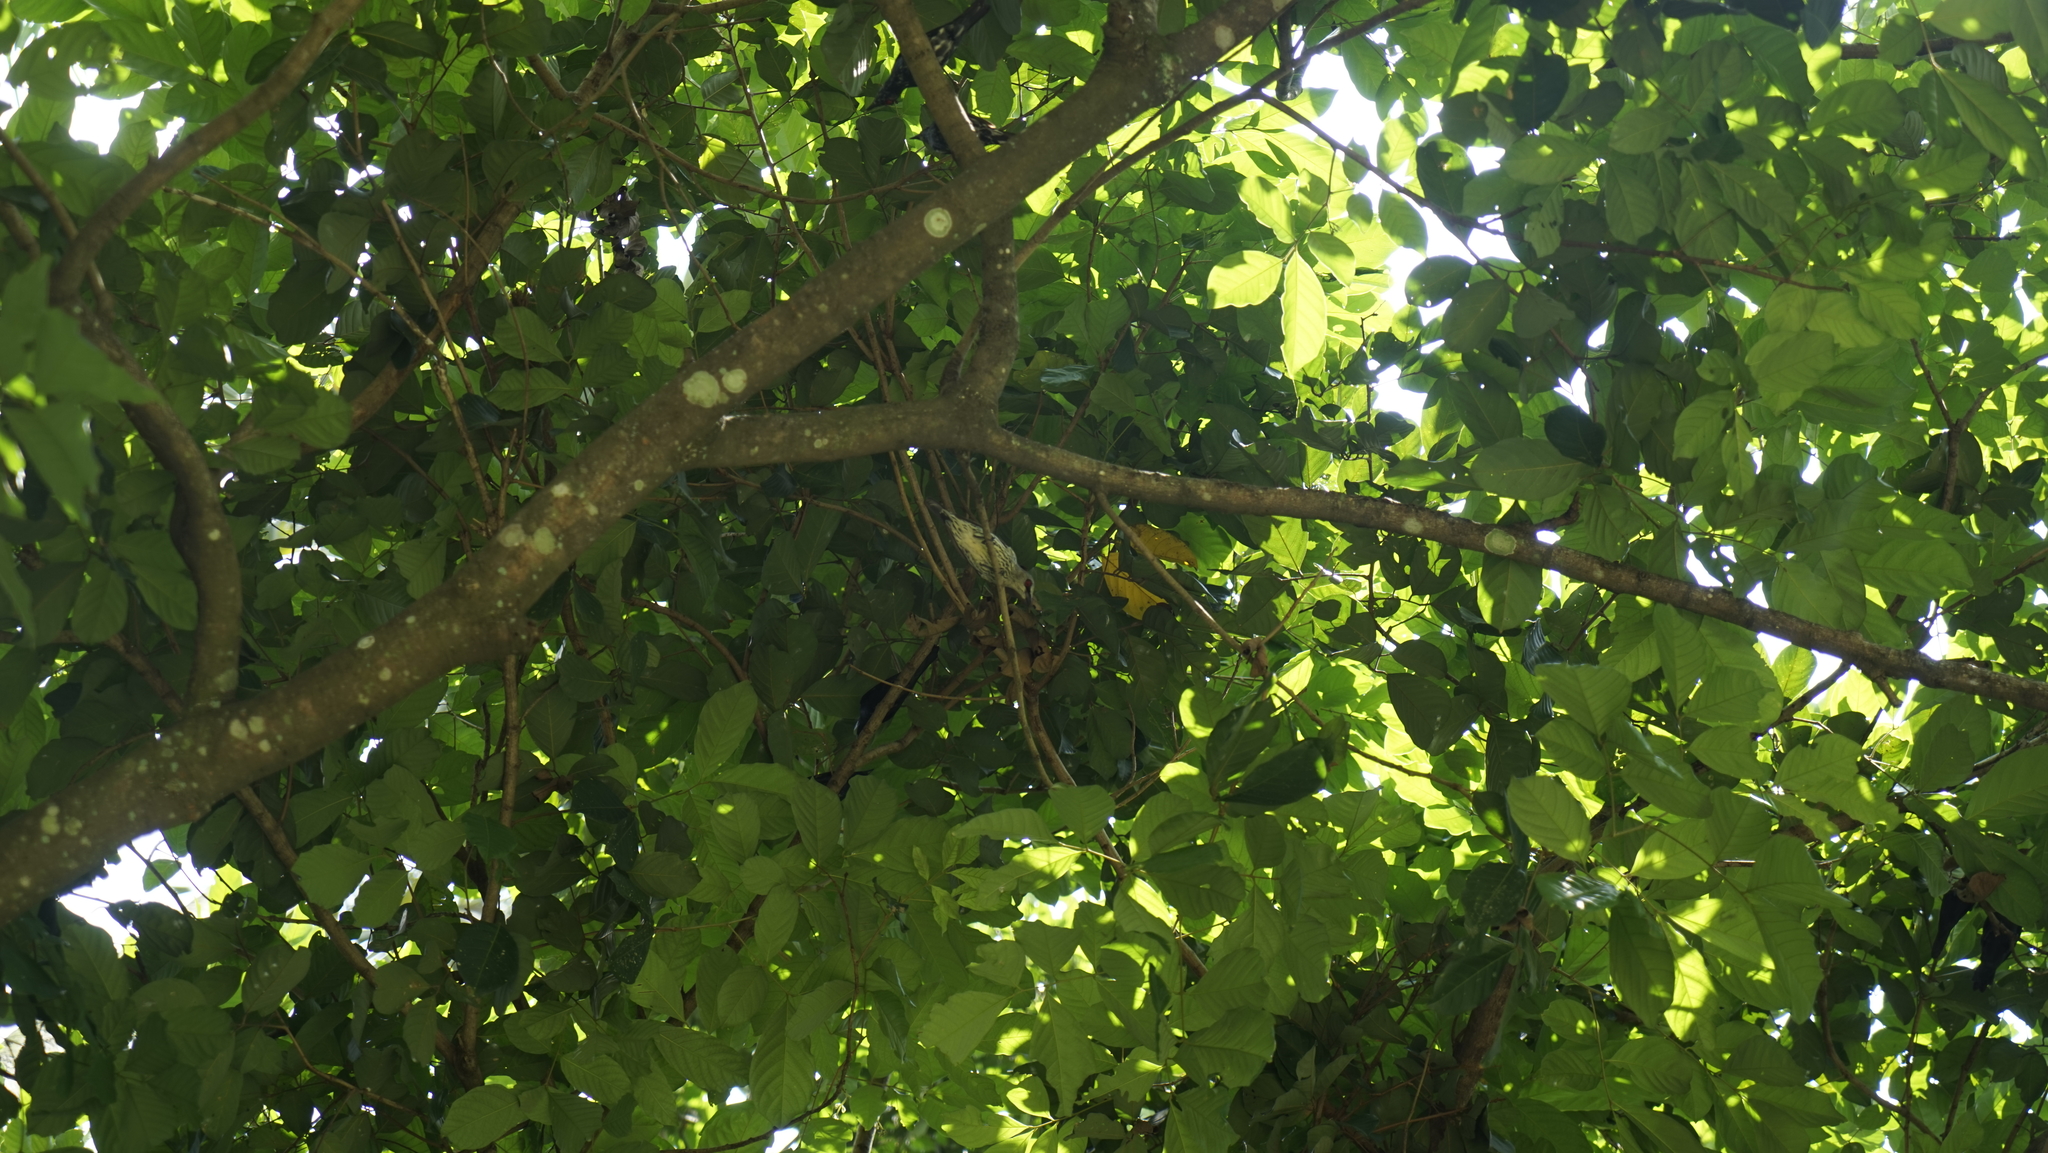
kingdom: Animalia
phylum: Chordata
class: Aves
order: Passeriformes
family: Sturnidae
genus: Aplonis
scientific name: Aplonis panayensis
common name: Asian glossy starling
